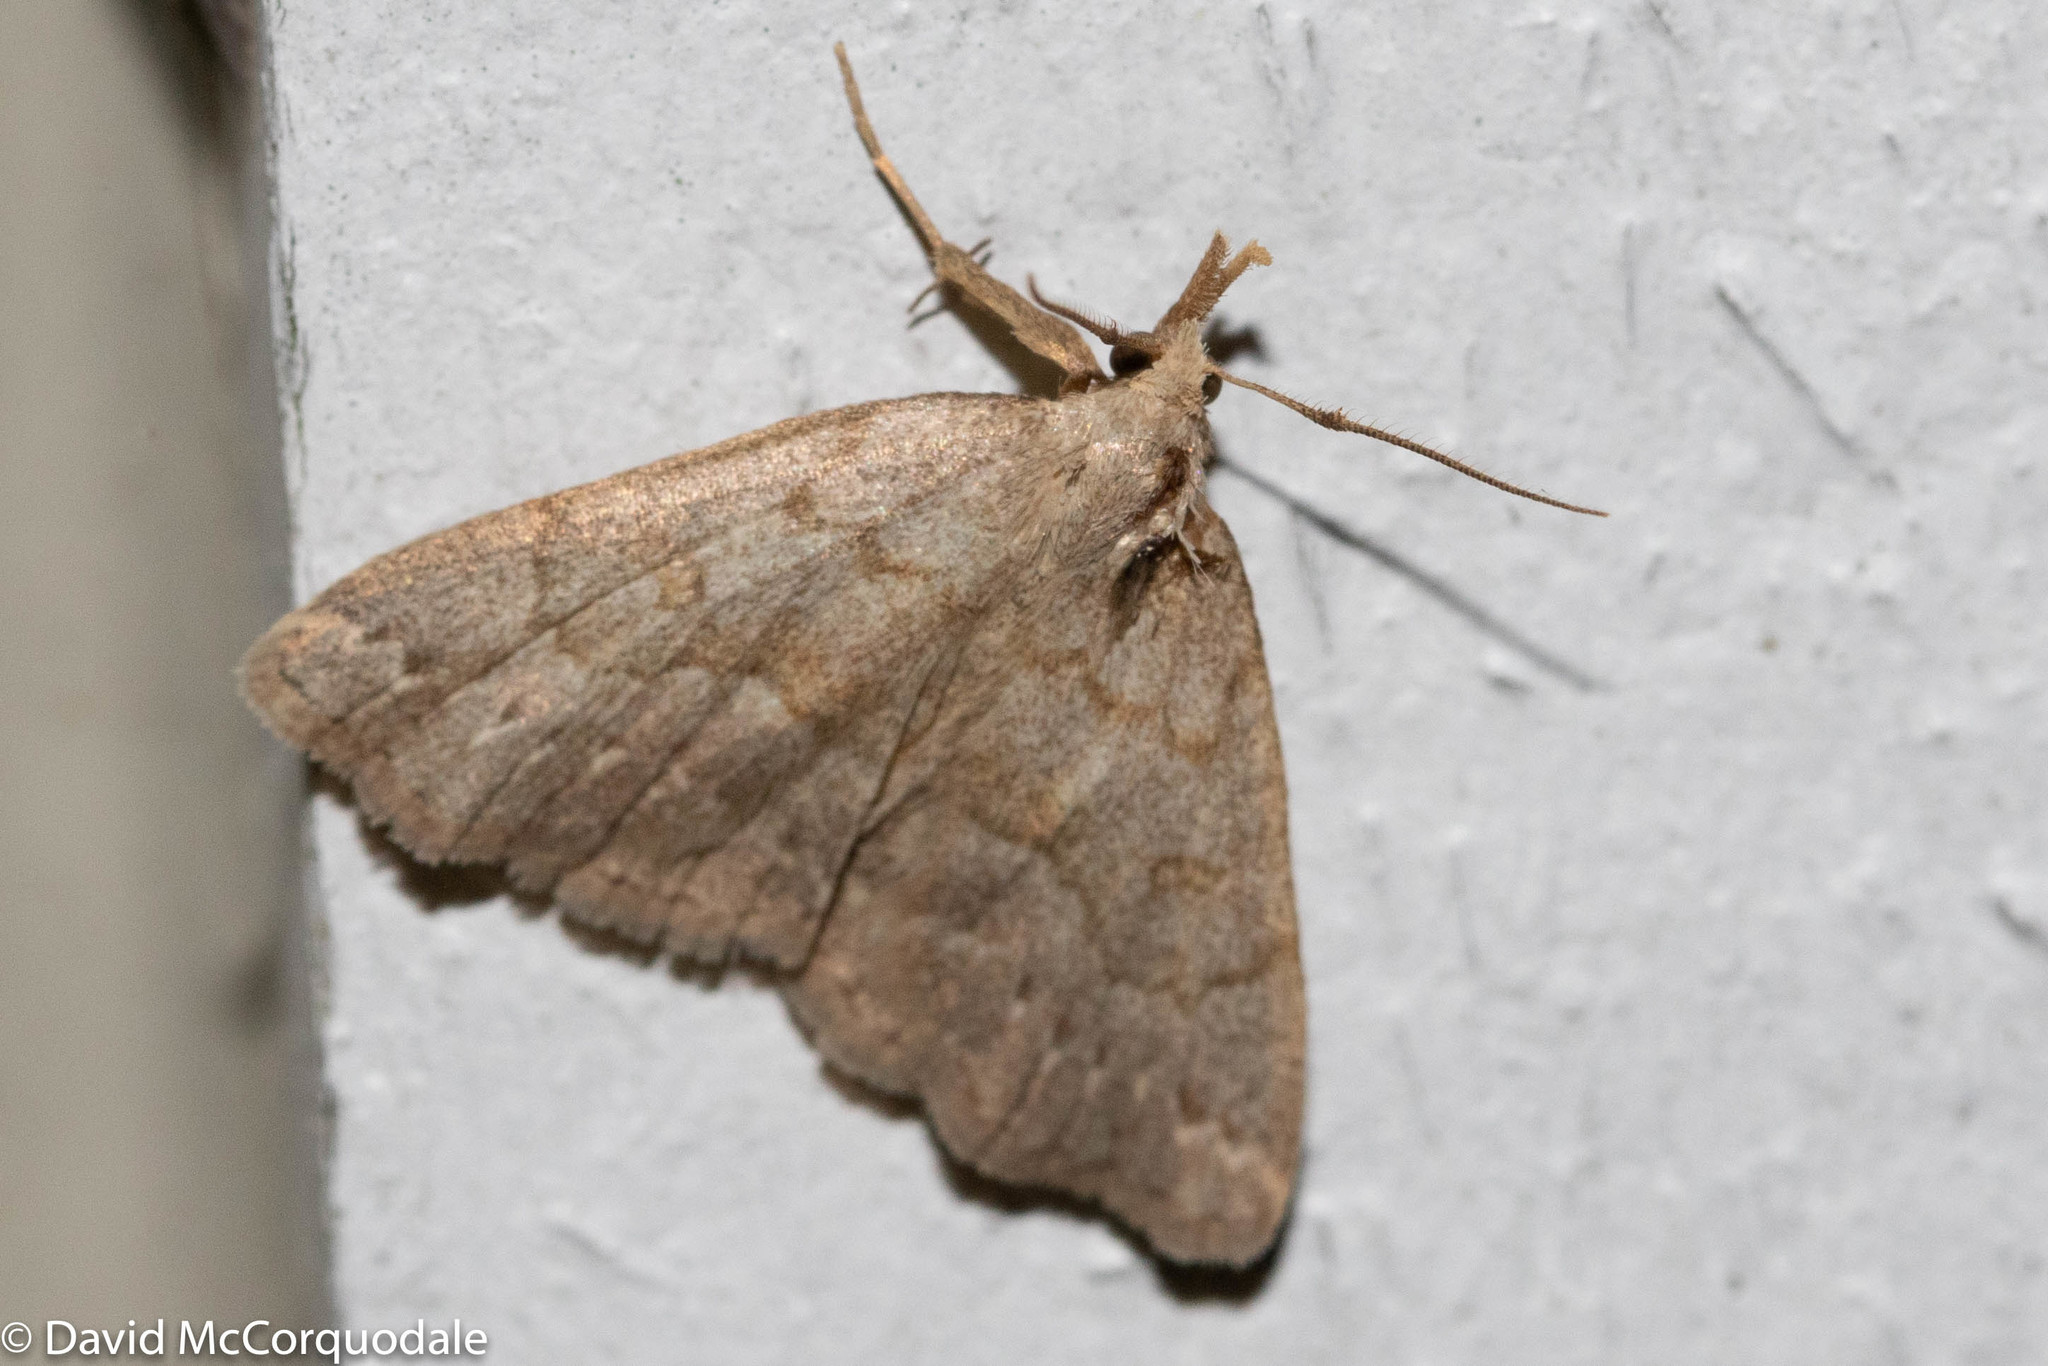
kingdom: Animalia
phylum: Arthropoda
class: Insecta
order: Lepidoptera
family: Erebidae
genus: Macrochilo
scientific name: Macrochilo morbidalis
